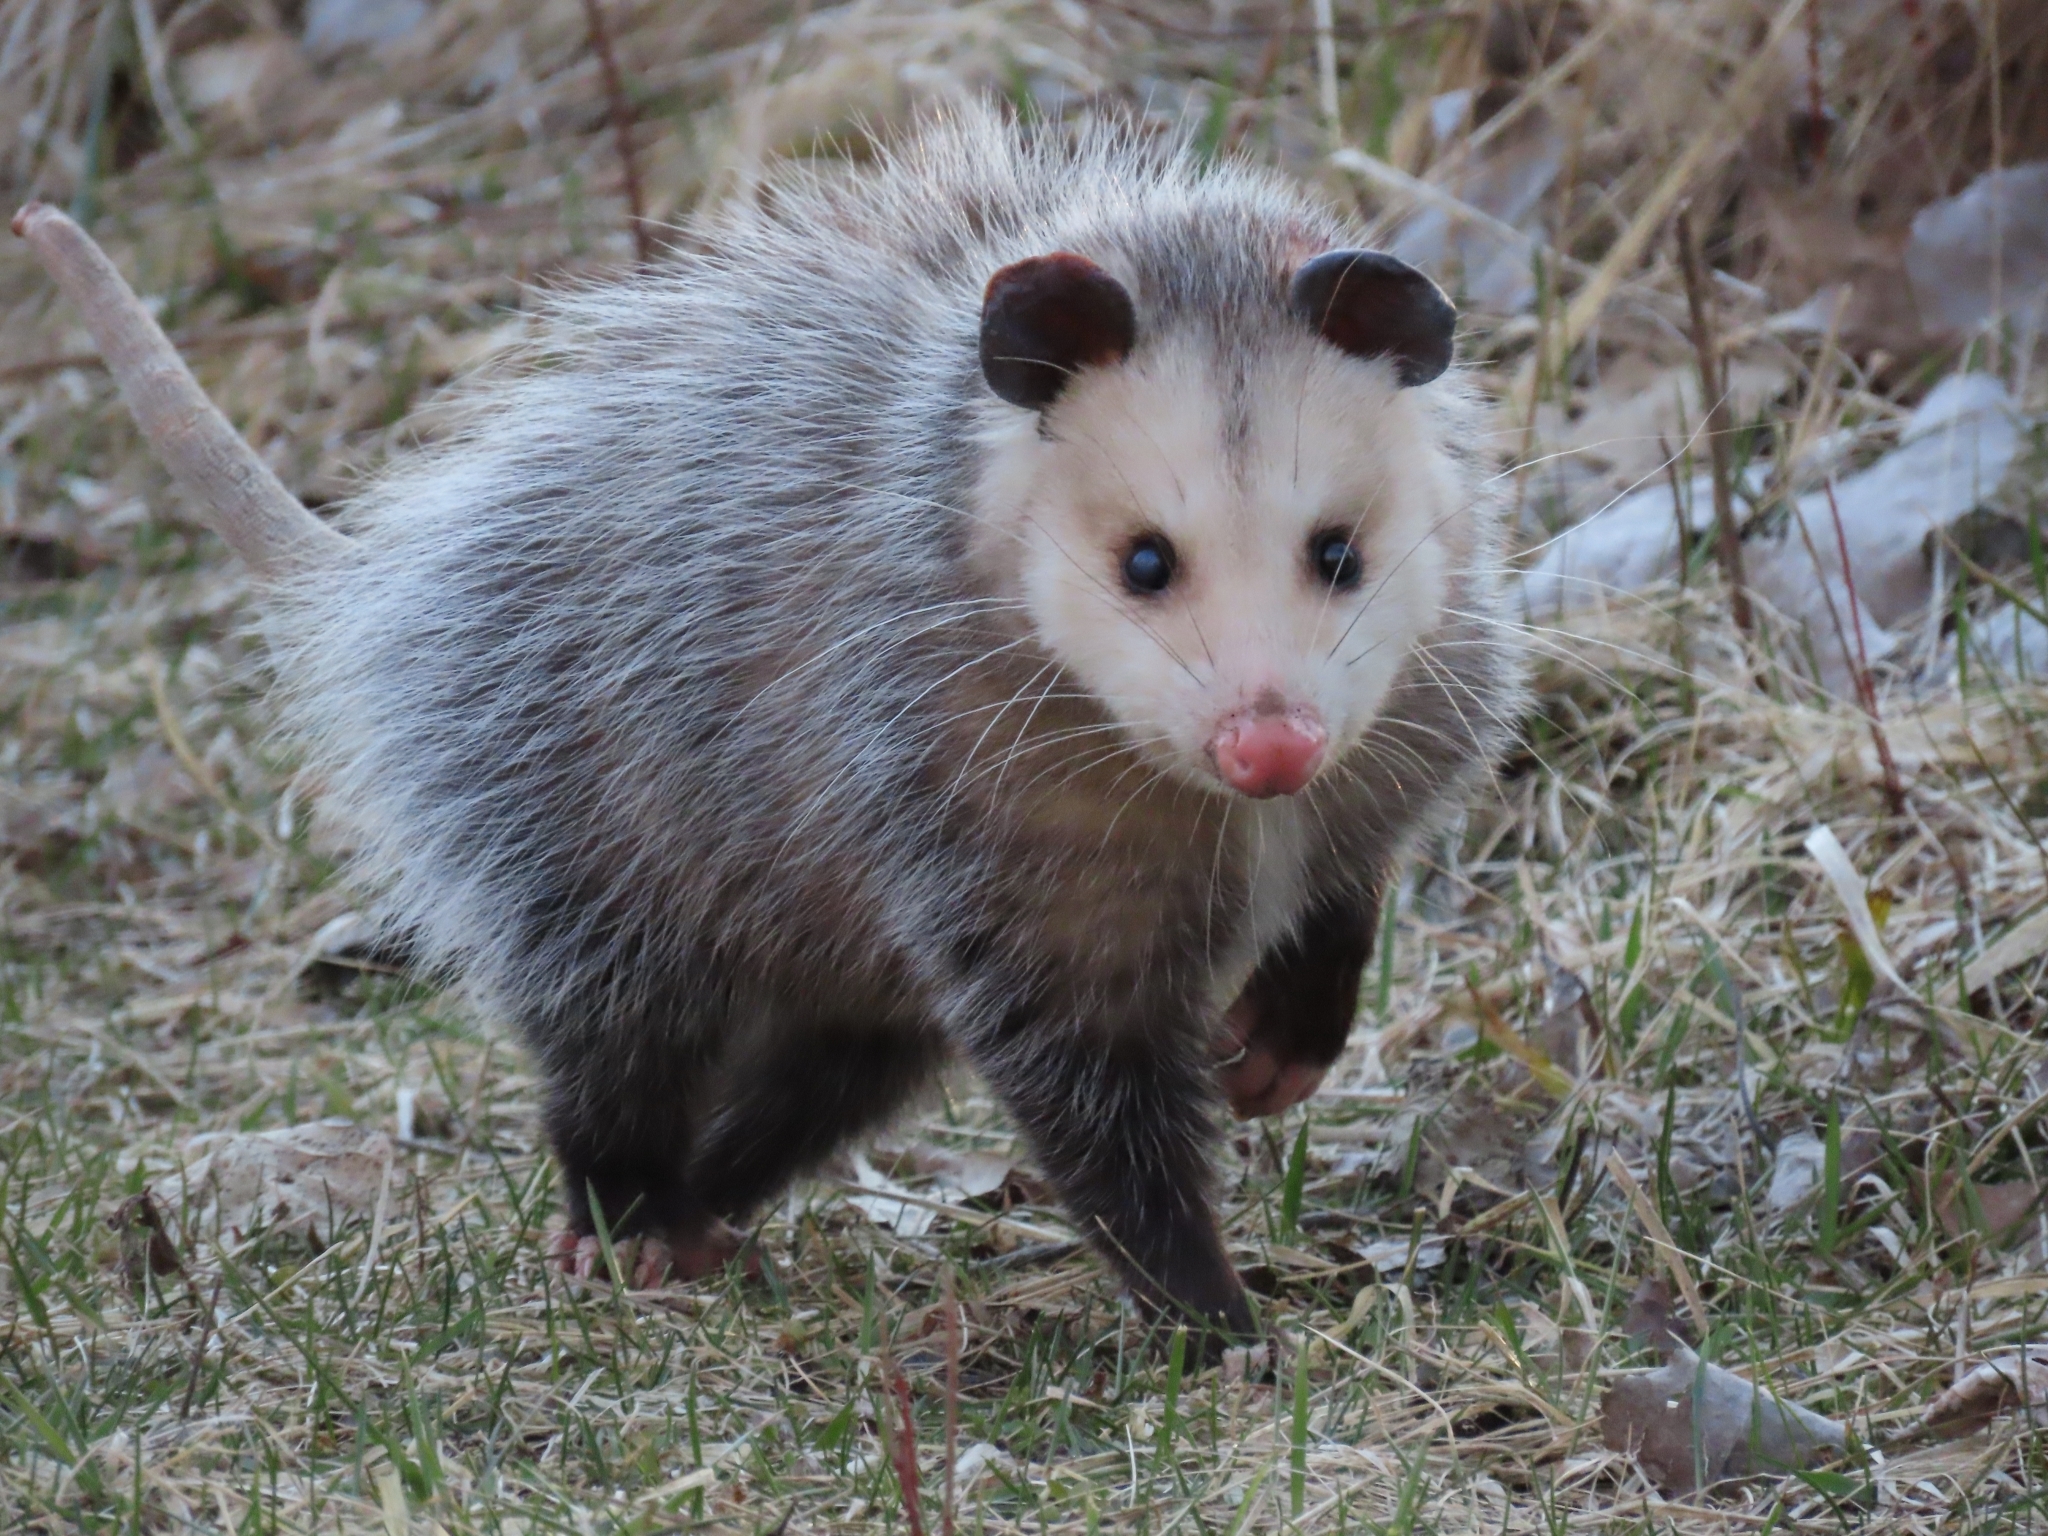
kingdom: Animalia
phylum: Chordata
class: Mammalia
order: Didelphimorphia
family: Didelphidae
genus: Didelphis
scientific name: Didelphis virginiana
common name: Virginia opossum
